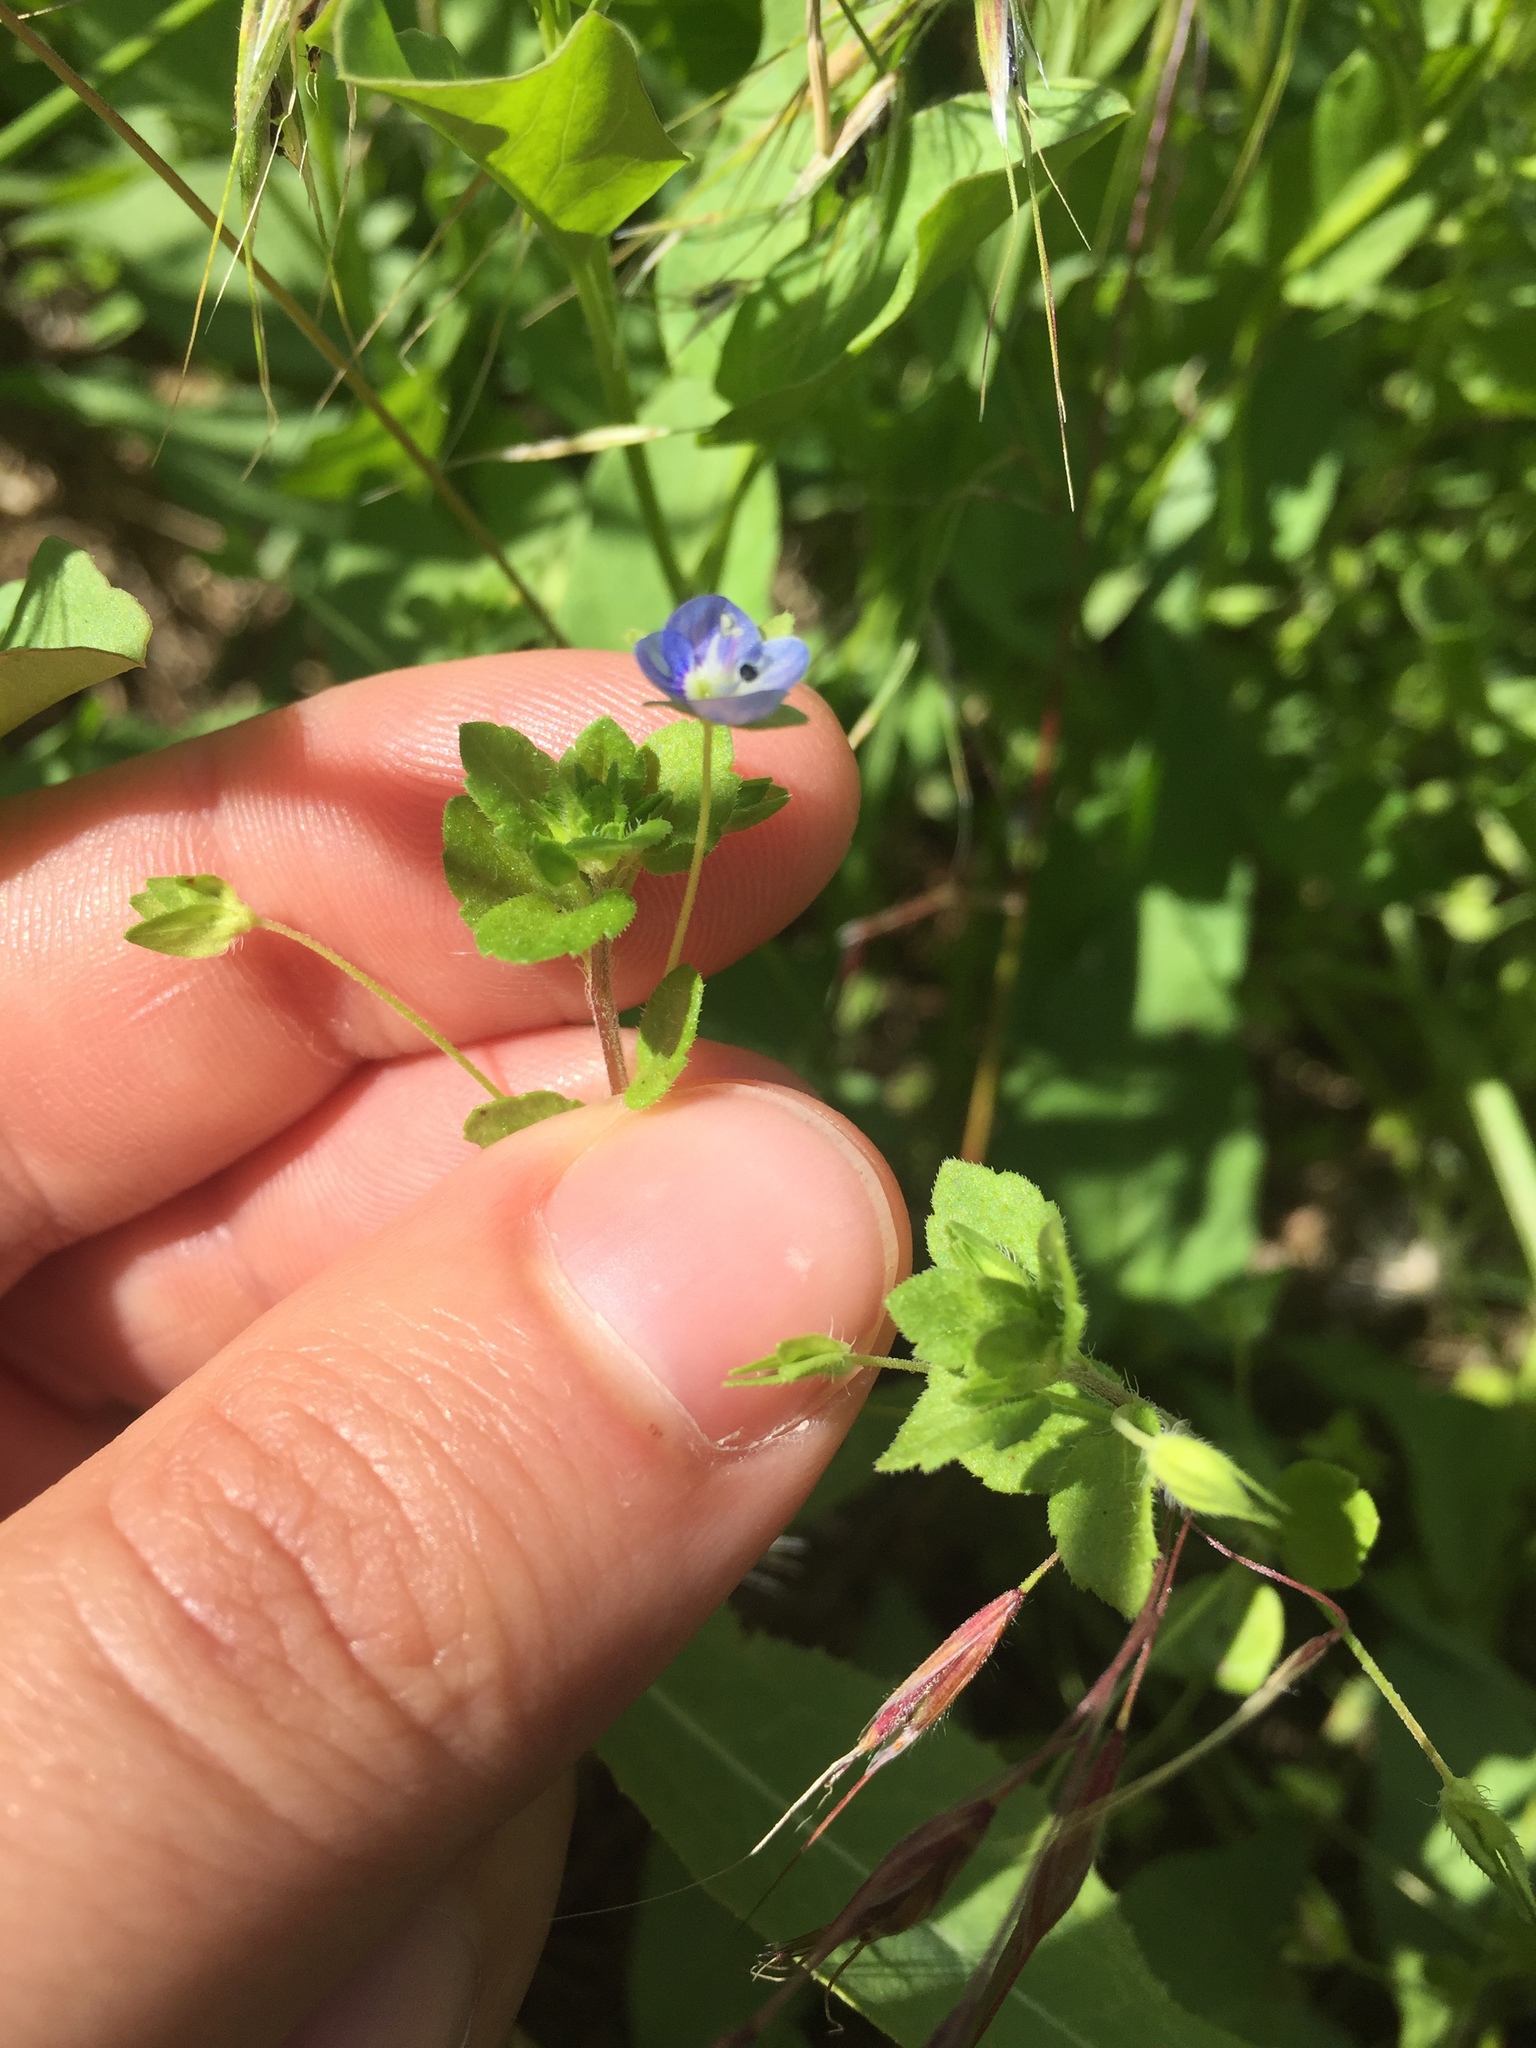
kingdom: Plantae
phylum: Tracheophyta
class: Magnoliopsida
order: Lamiales
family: Plantaginaceae
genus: Veronica
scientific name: Veronica persica
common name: Common field-speedwell
